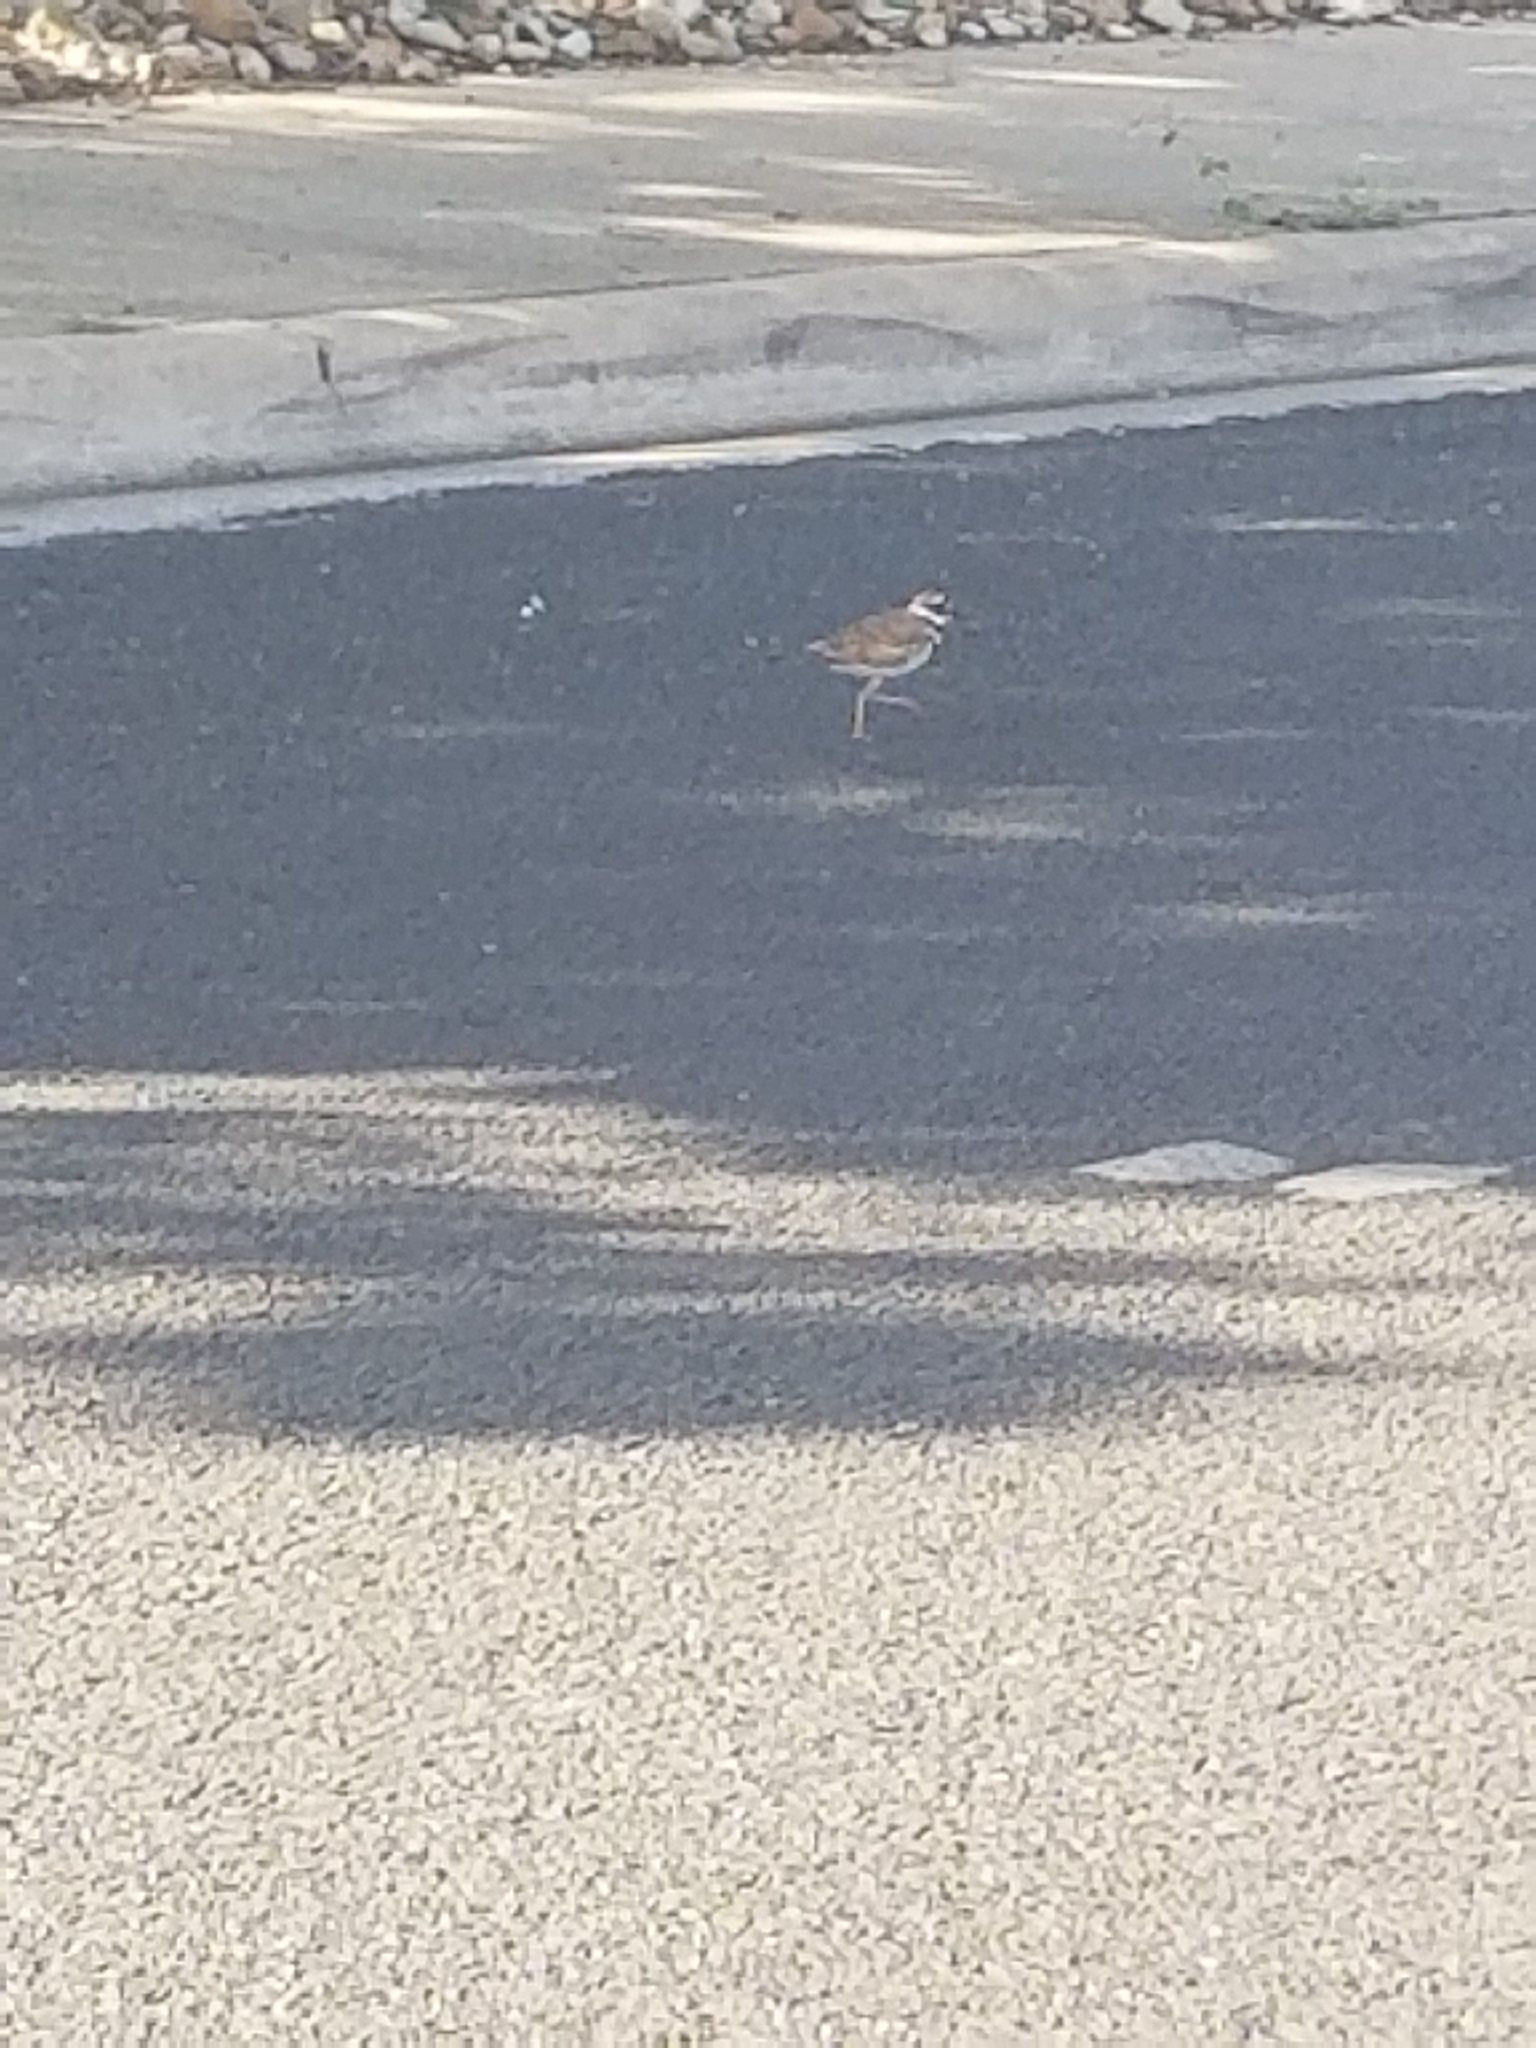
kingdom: Animalia
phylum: Chordata
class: Aves
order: Charadriiformes
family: Charadriidae
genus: Charadrius
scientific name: Charadrius vociferus
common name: Killdeer
